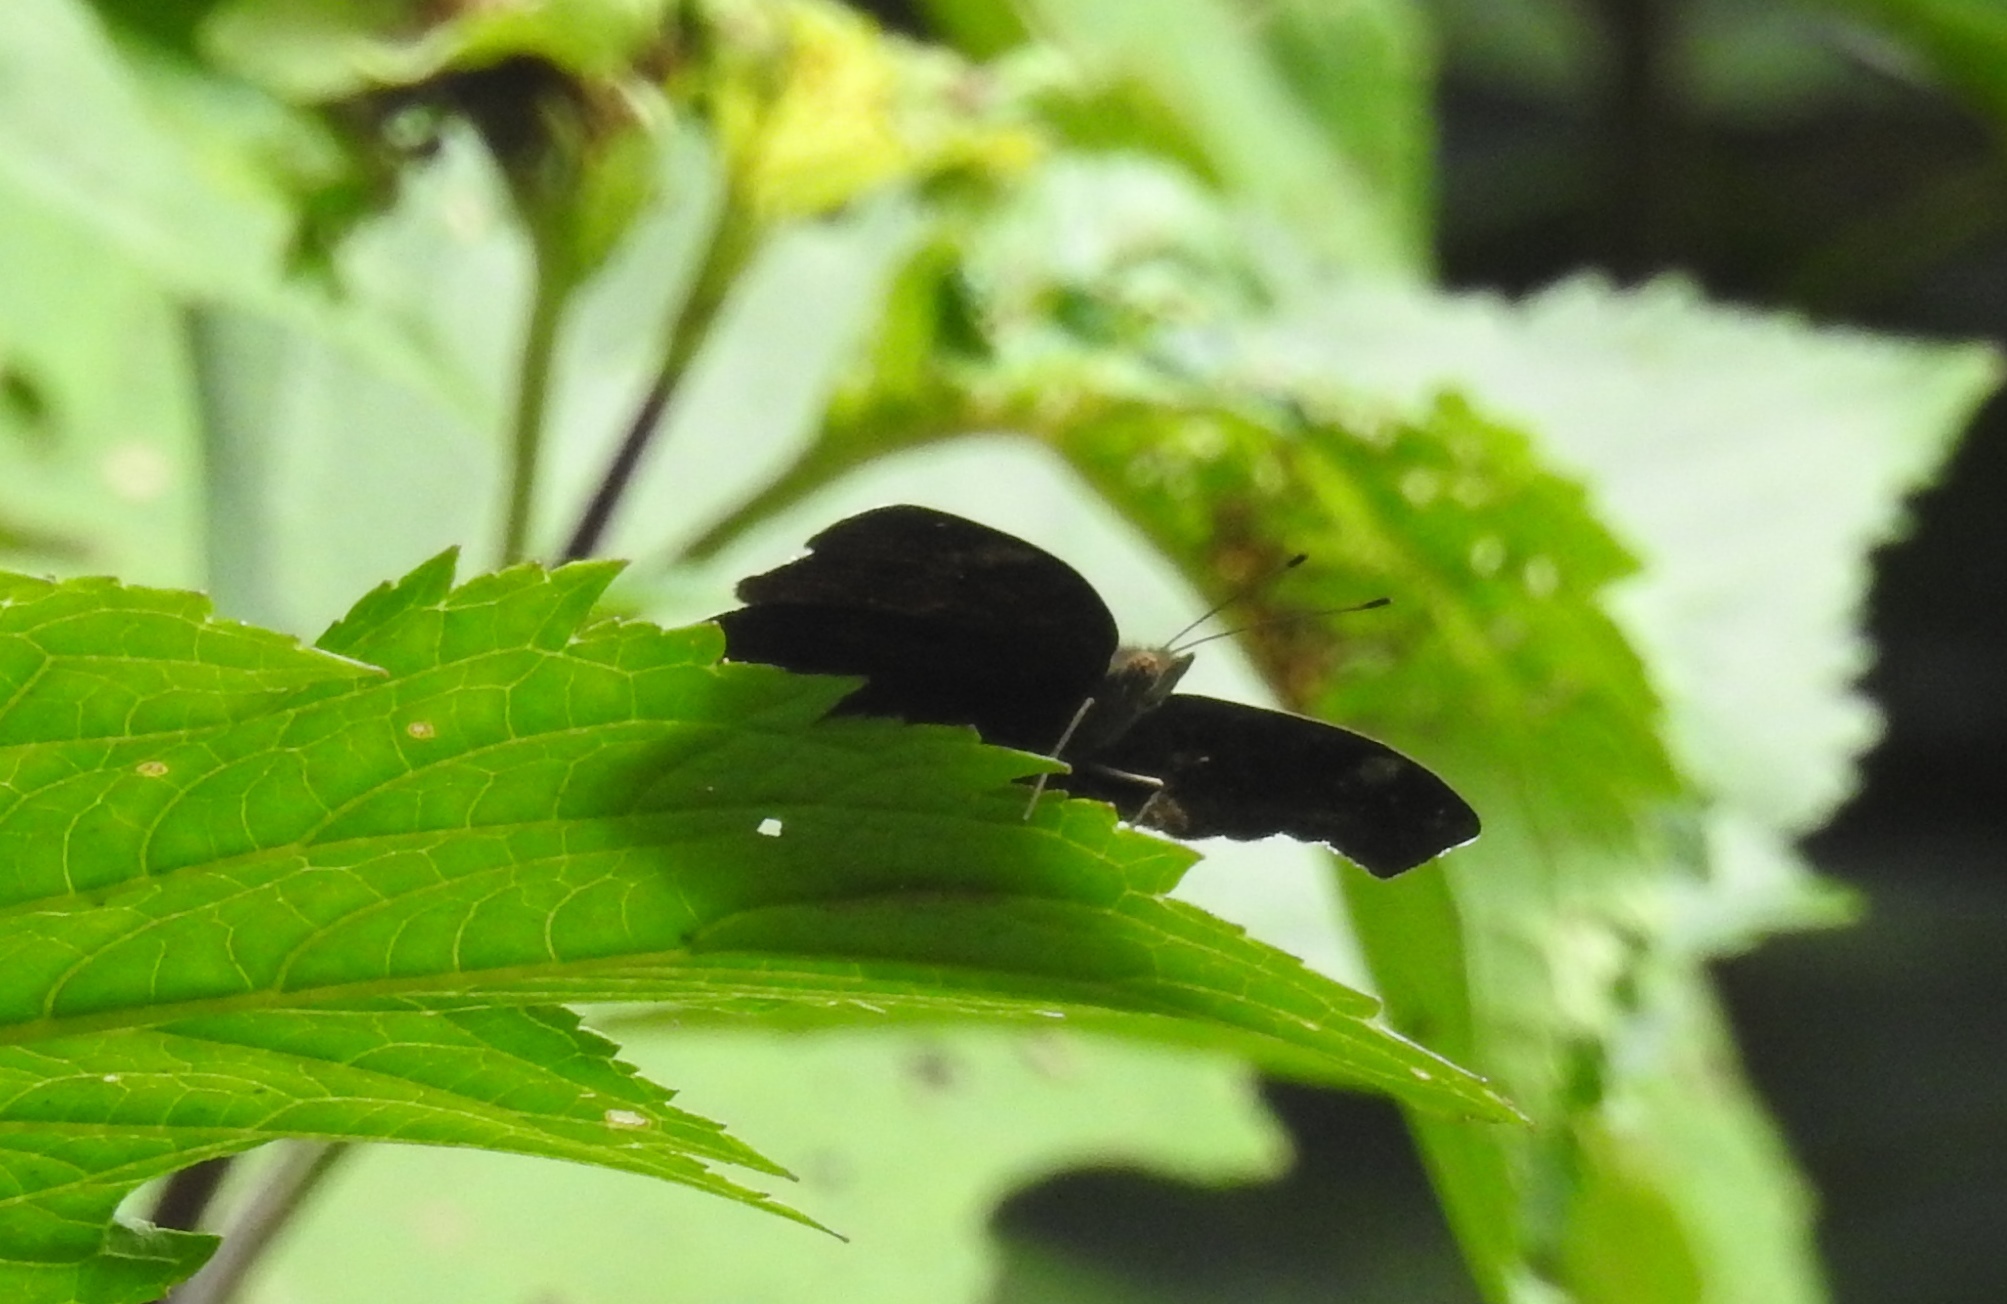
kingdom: Animalia
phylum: Arthropoda
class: Insecta
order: Lepidoptera
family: Nymphalidae
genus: Junonia
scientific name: Junonia iphita
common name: Chocolate pansy
